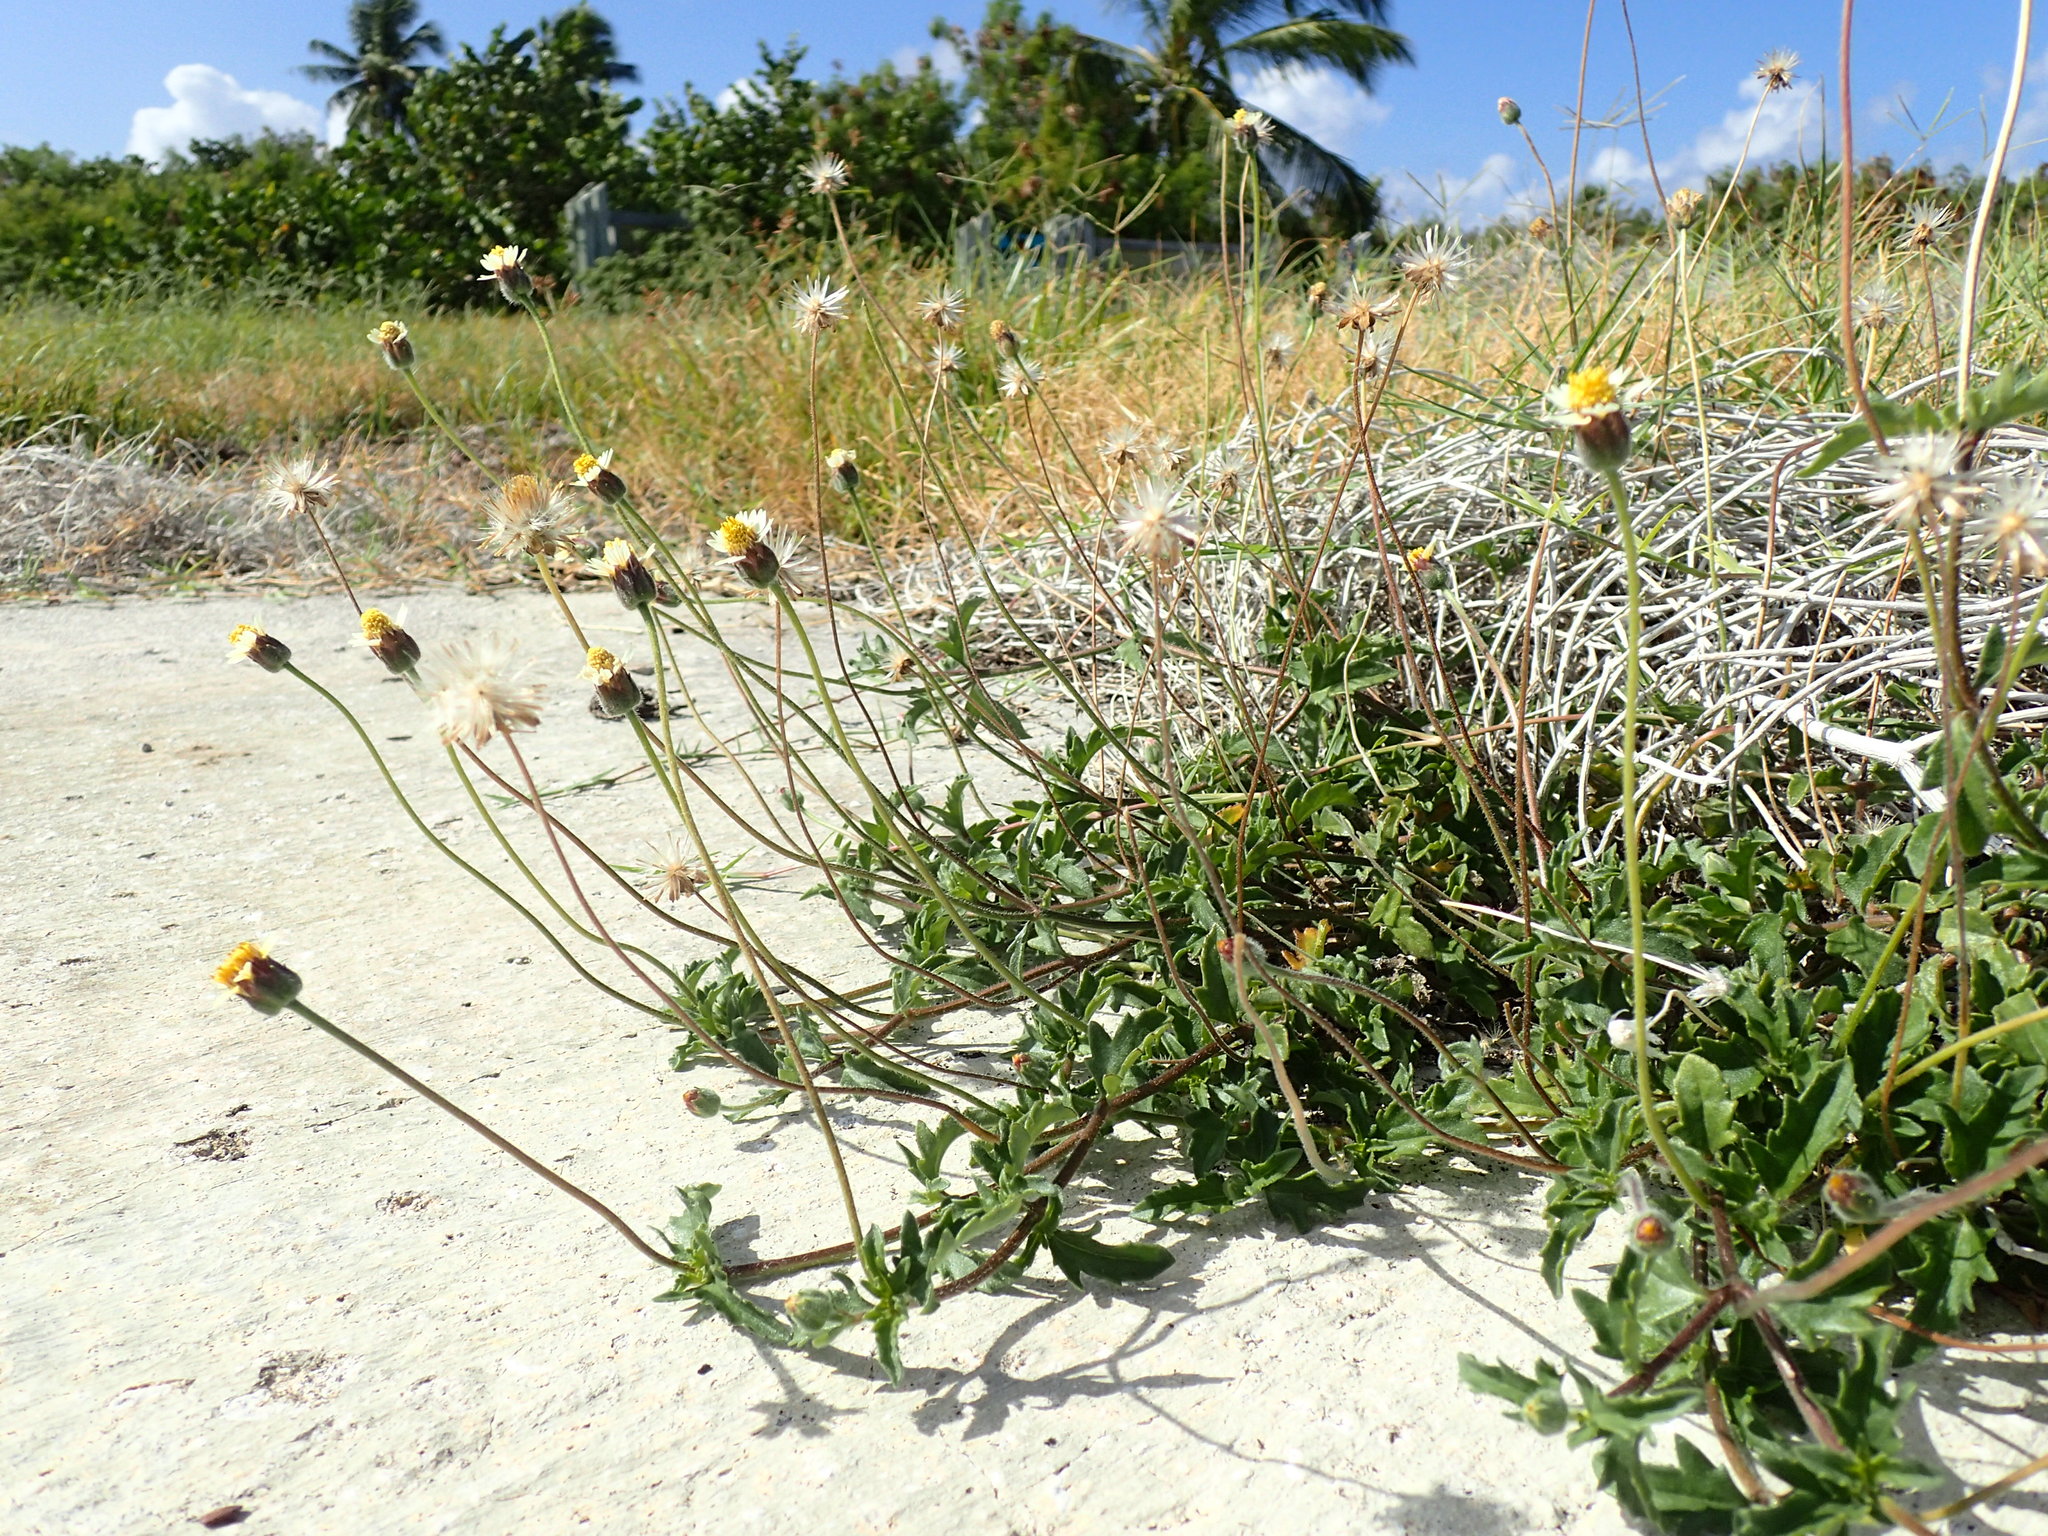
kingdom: Plantae
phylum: Tracheophyta
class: Magnoliopsida
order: Asterales
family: Asteraceae
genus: Tridax
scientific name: Tridax procumbens
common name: Coatbuttons
